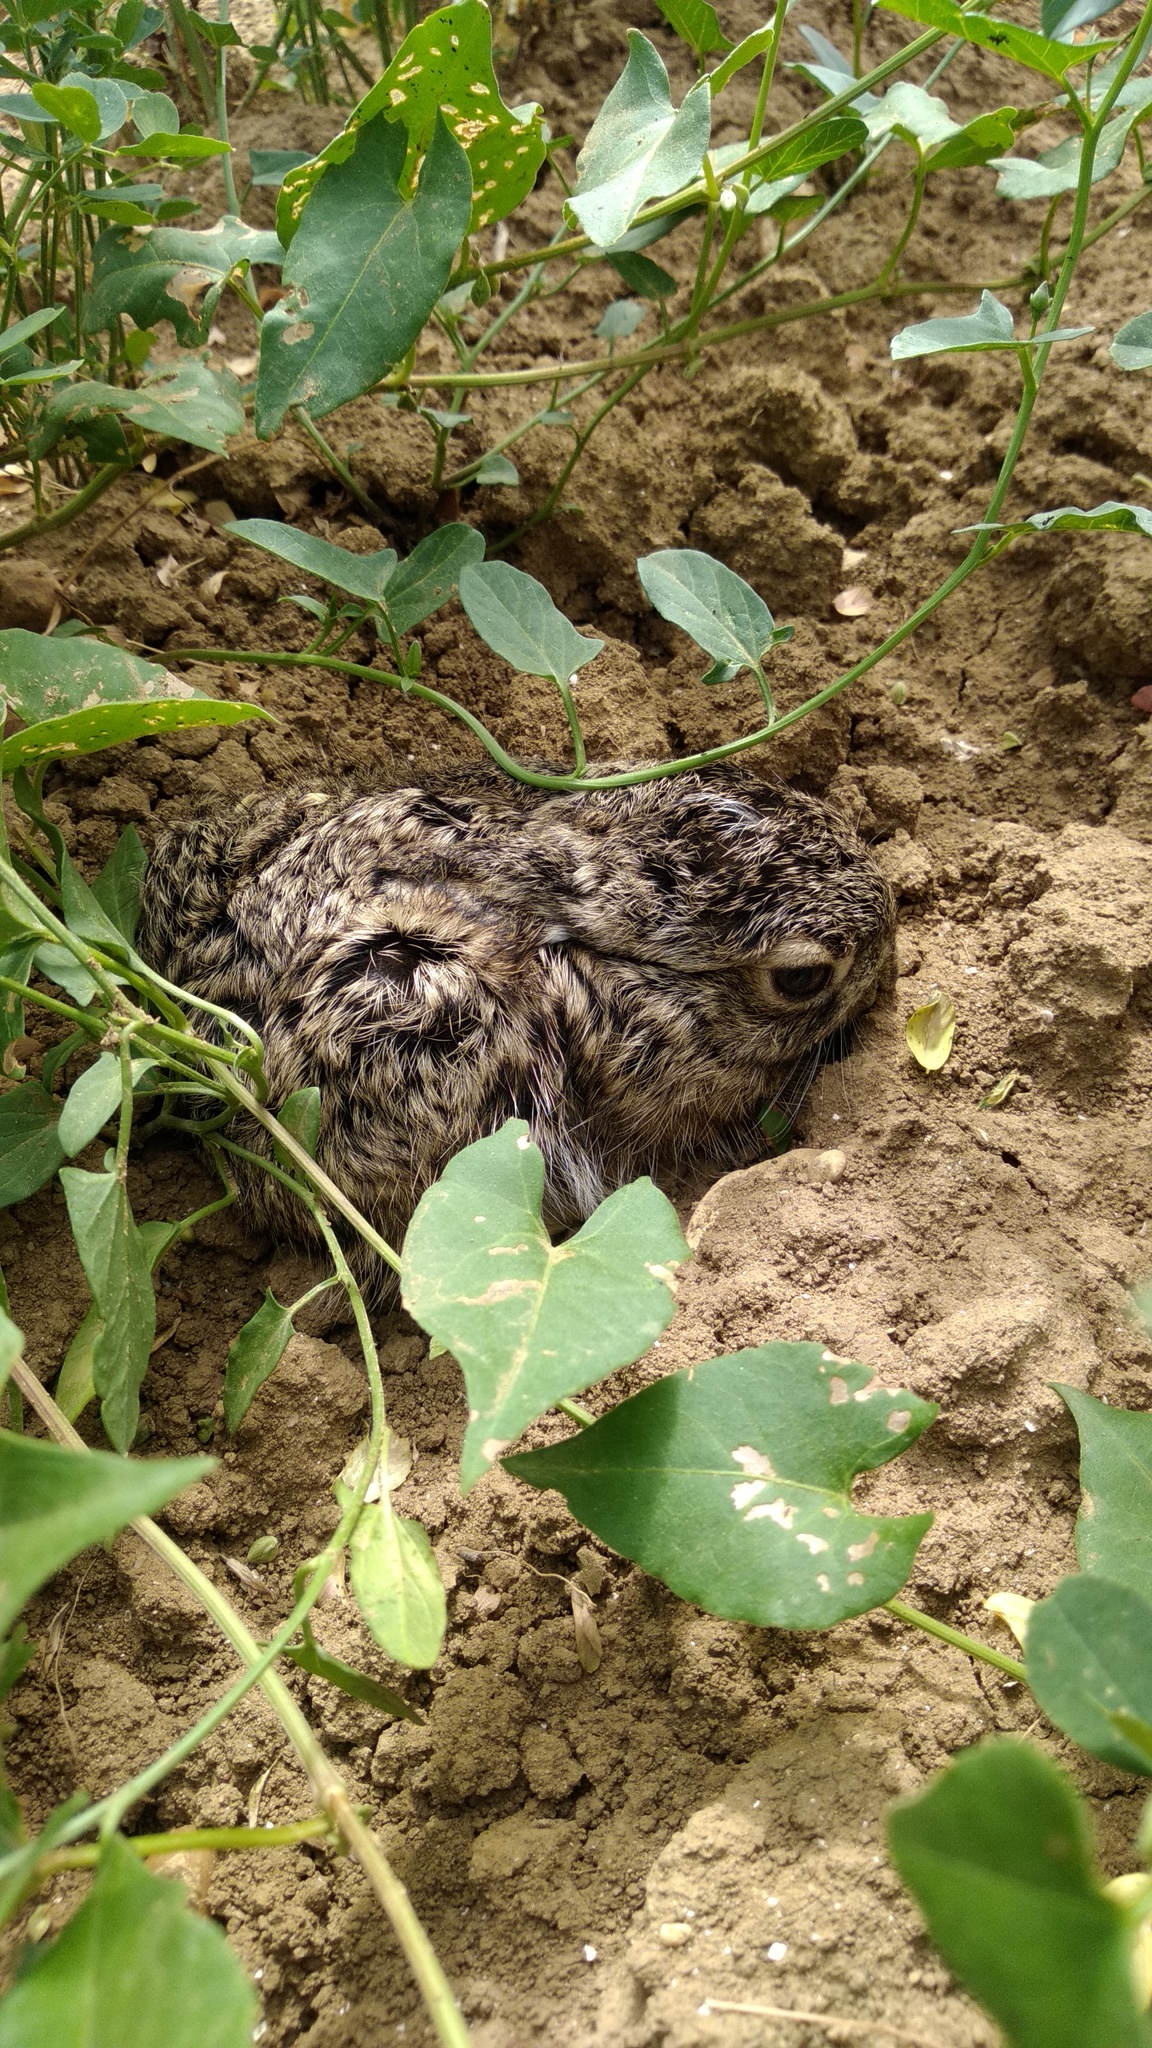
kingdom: Animalia
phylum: Chordata
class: Mammalia
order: Lagomorpha
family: Leporidae
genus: Lepus
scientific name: Lepus europaeus
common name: European hare
